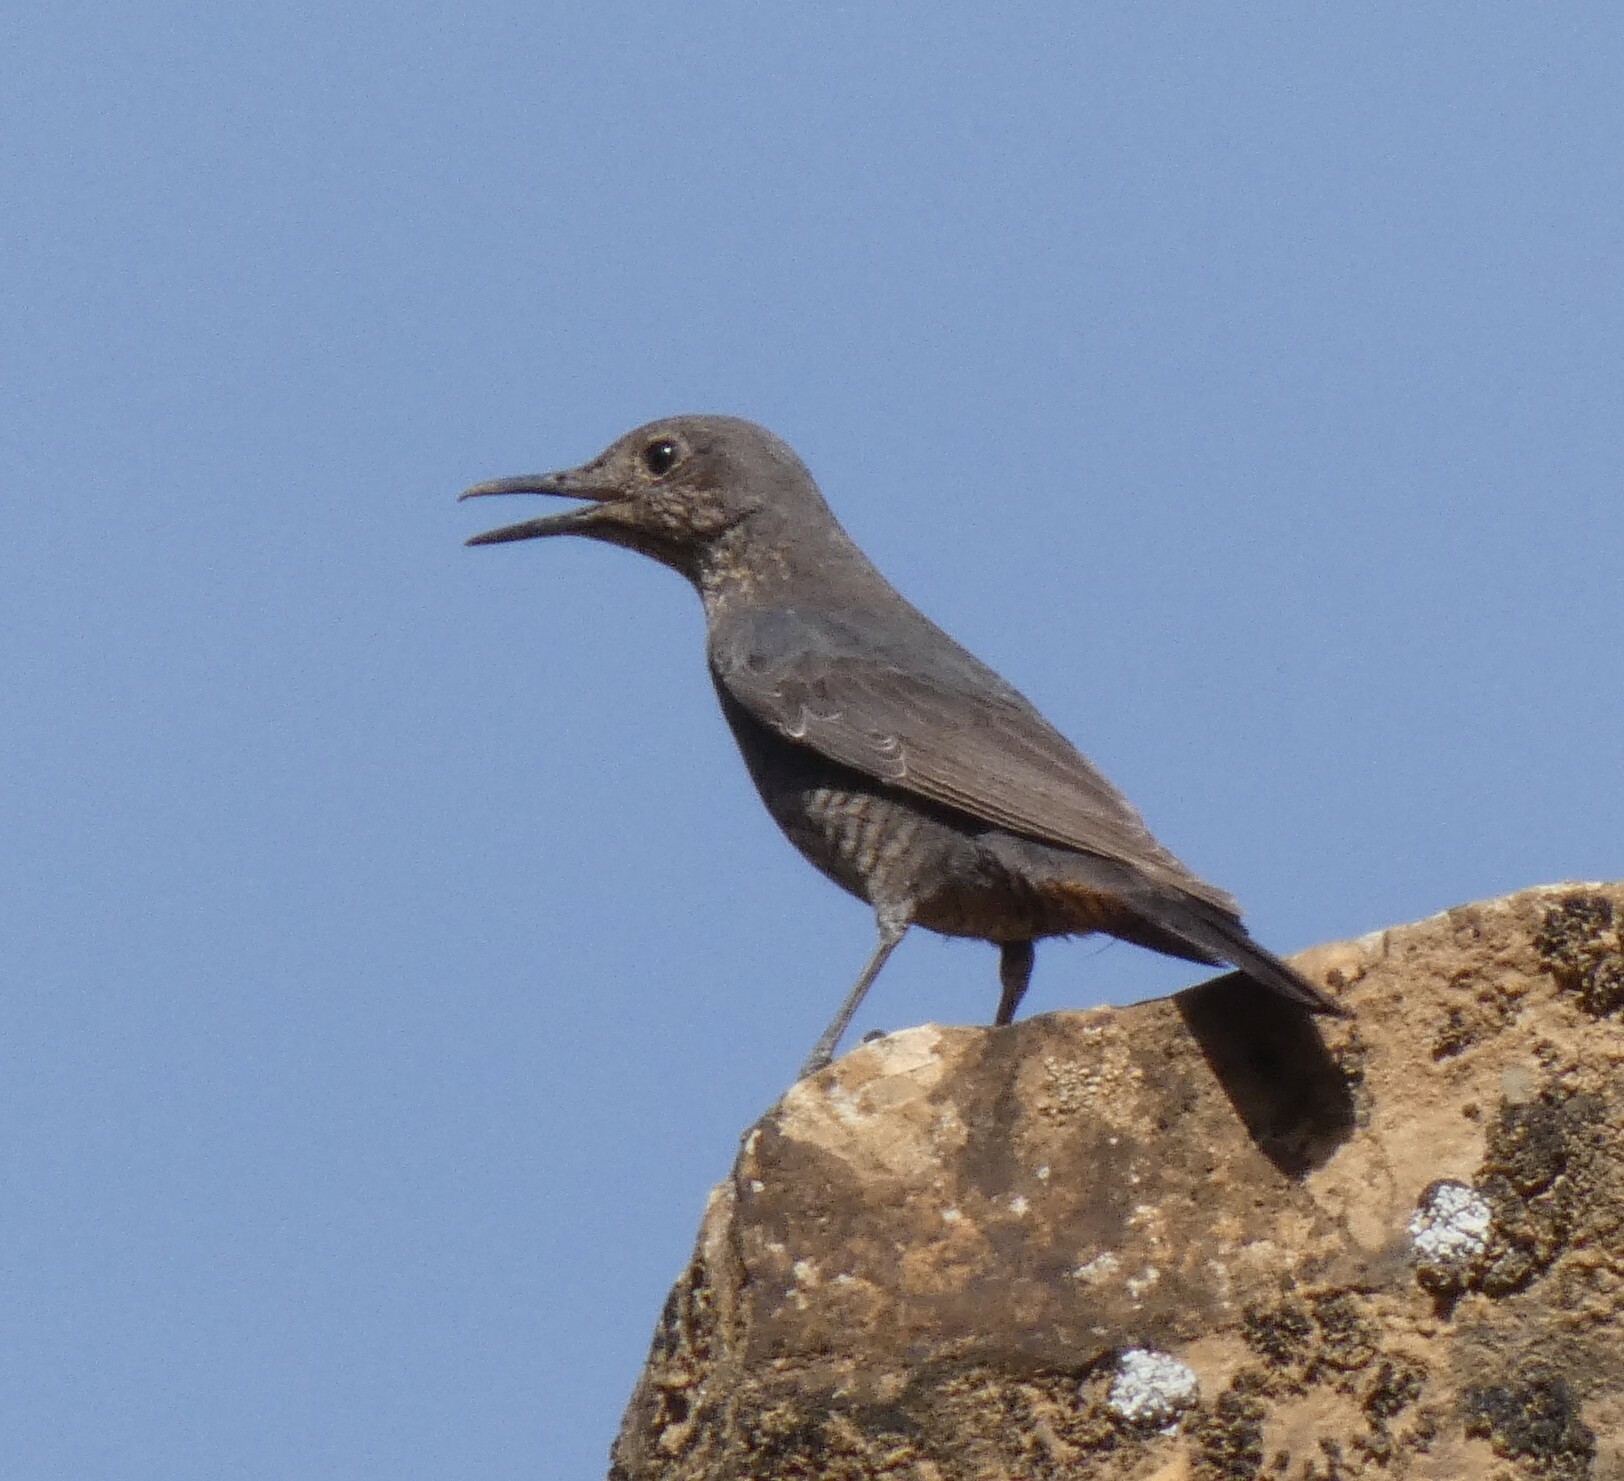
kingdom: Animalia
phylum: Chordata
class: Aves
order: Passeriformes
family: Muscicapidae
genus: Monticola
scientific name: Monticola solitarius
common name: Blue rock thrush
